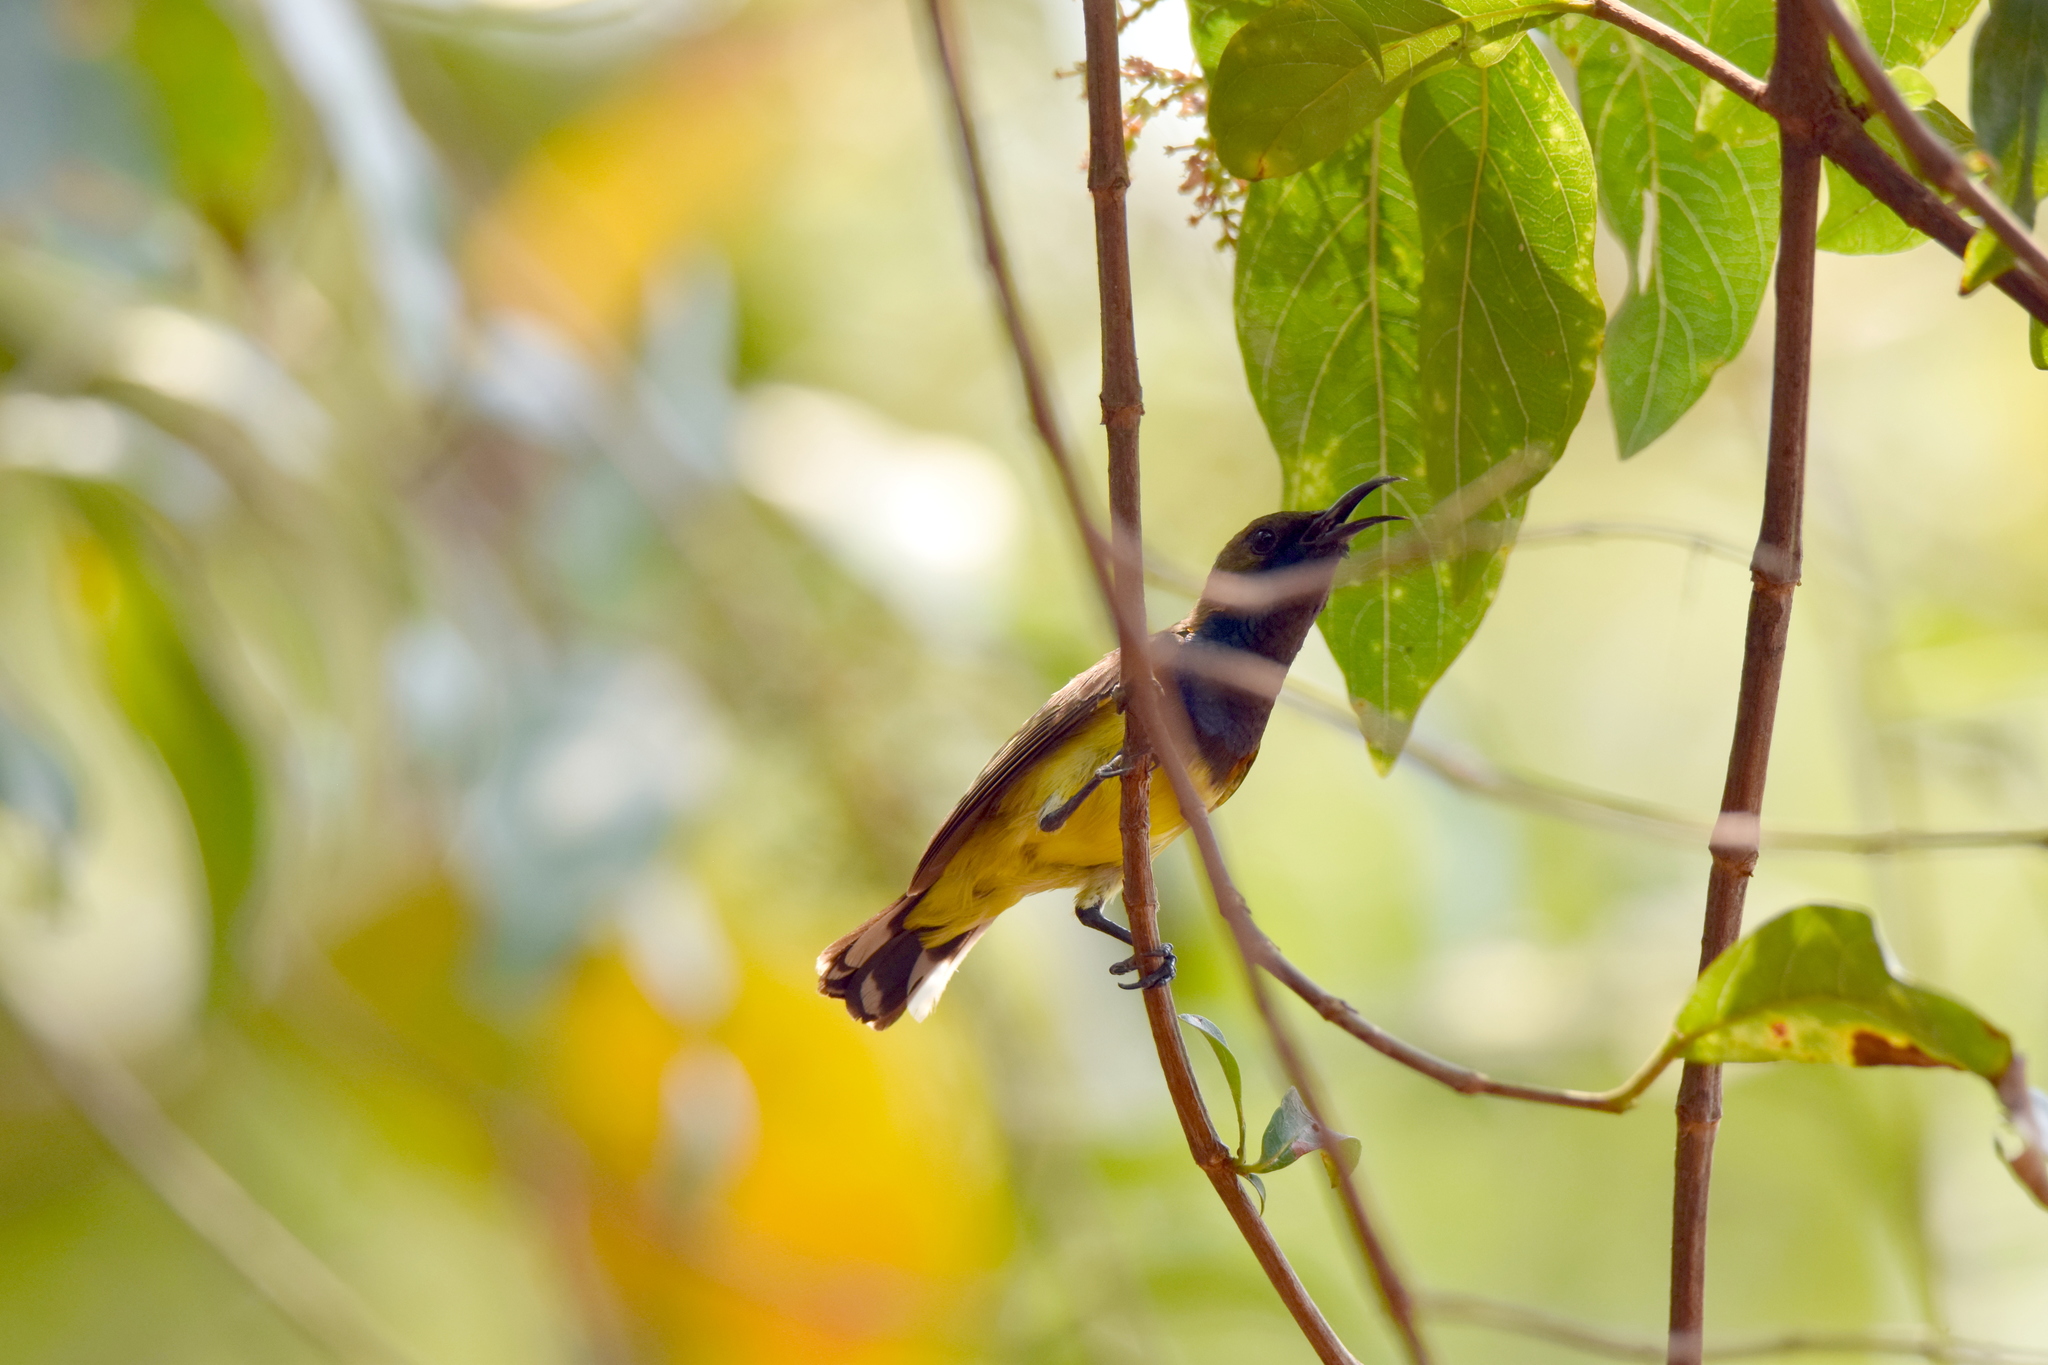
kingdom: Animalia
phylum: Chordata
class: Aves
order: Passeriformes
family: Nectariniidae
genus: Cinnyris
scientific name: Cinnyris
